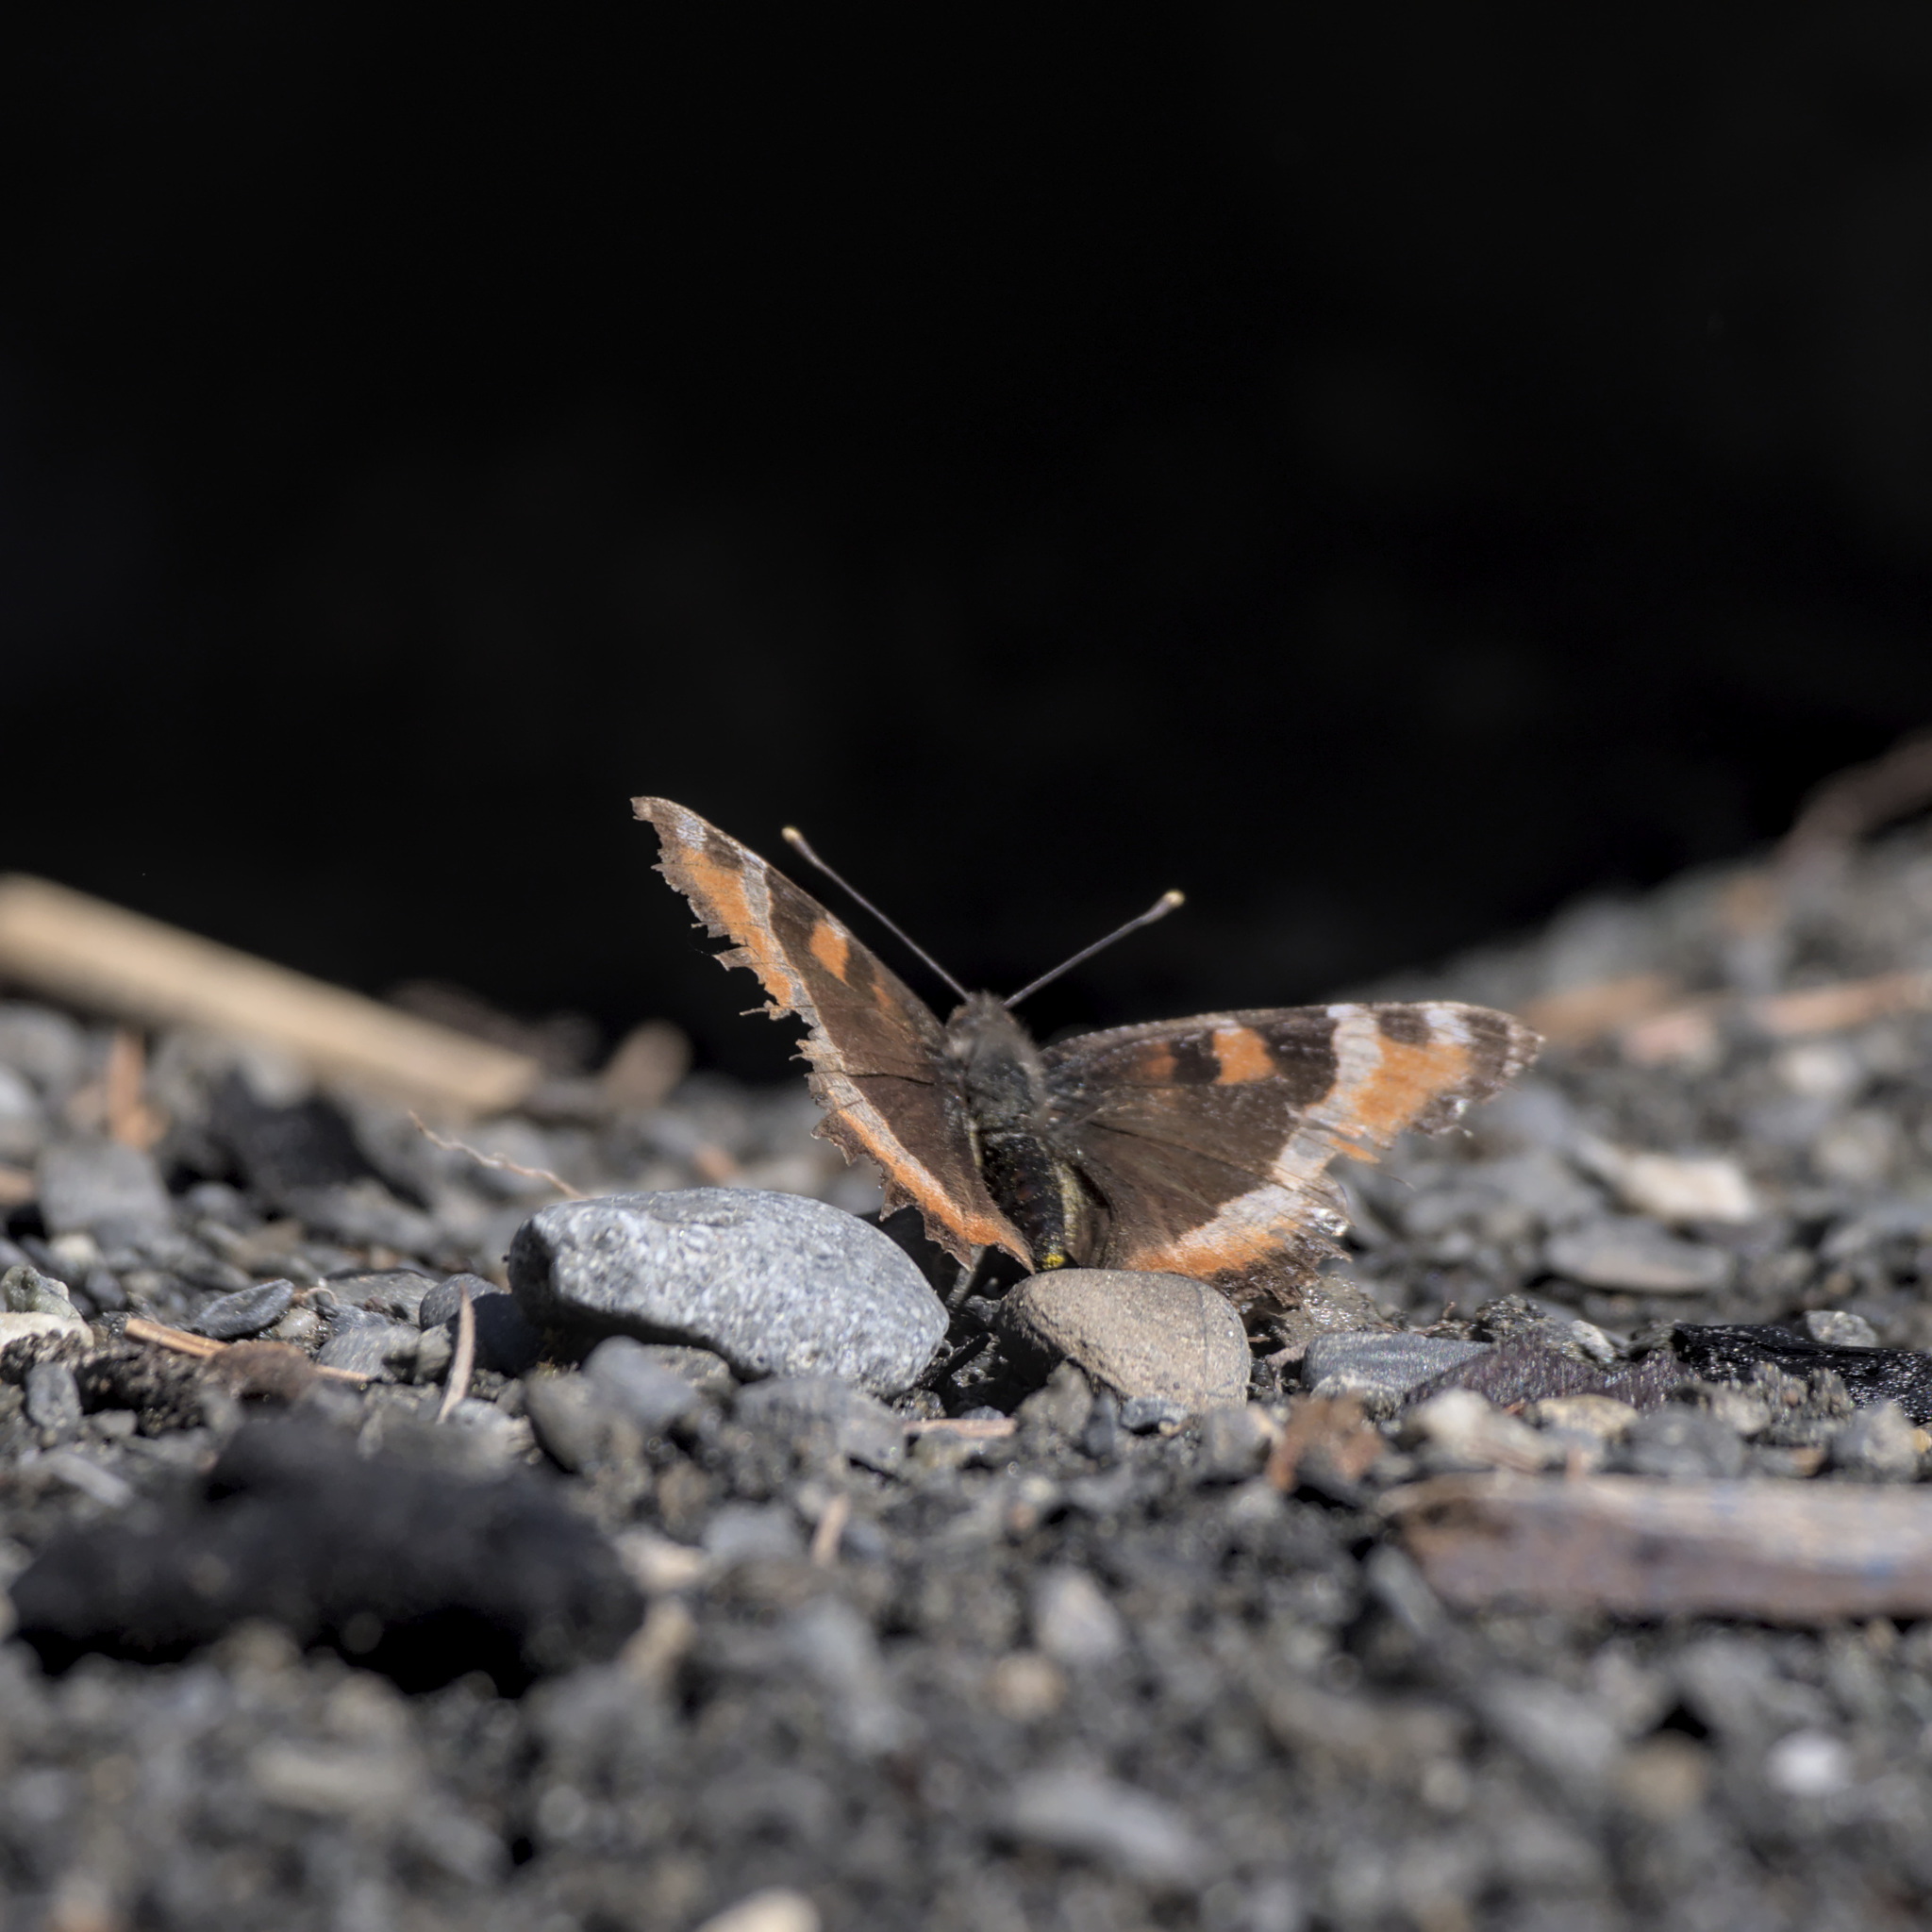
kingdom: Animalia
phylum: Arthropoda
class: Insecta
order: Lepidoptera
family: Nymphalidae
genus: Aglais
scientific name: Aglais milberti
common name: Milbert's tortoiseshell
